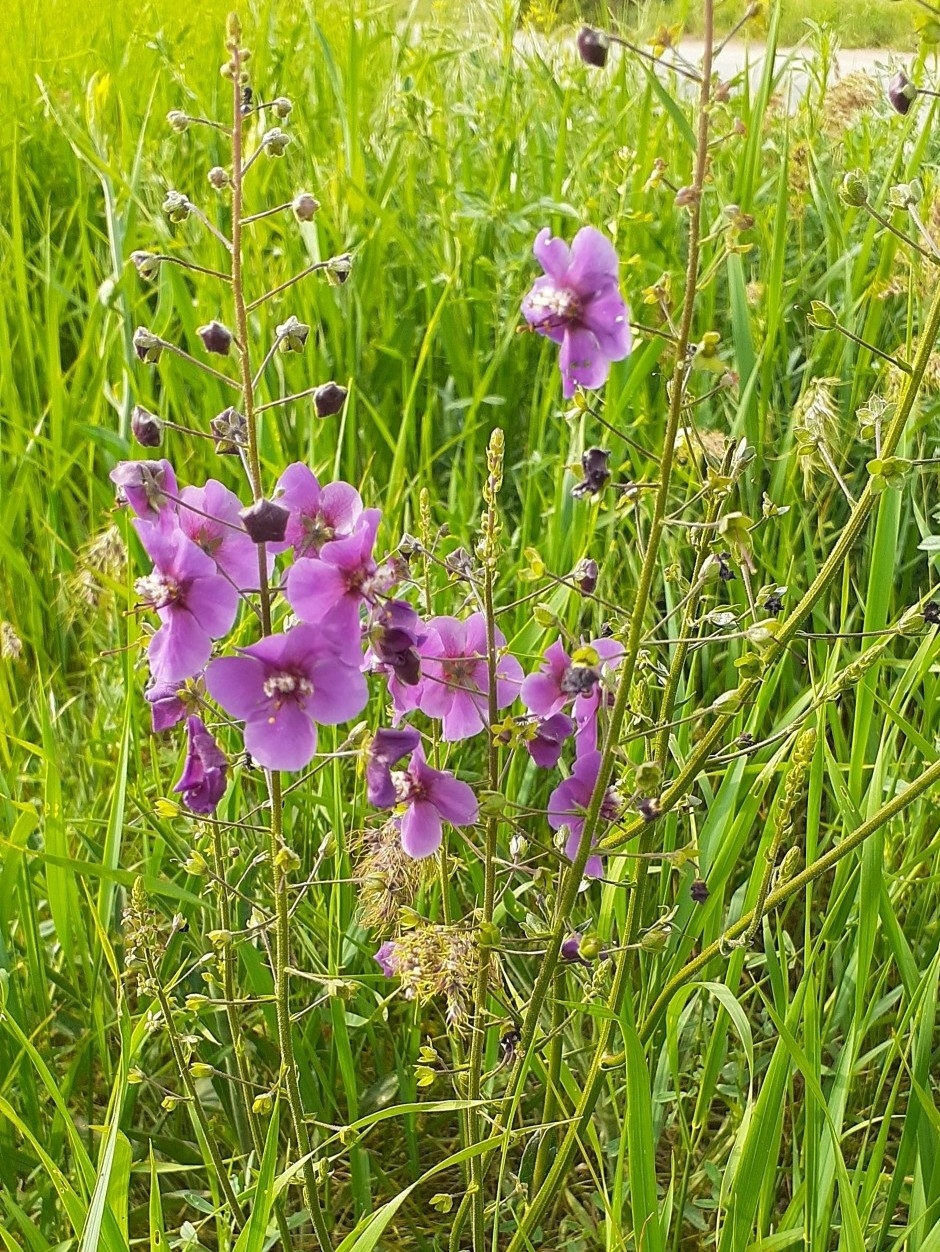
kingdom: Plantae
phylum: Tracheophyta
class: Magnoliopsida
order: Lamiales
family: Scrophulariaceae
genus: Verbascum
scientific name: Verbascum phoeniceum
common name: Purple mullein
